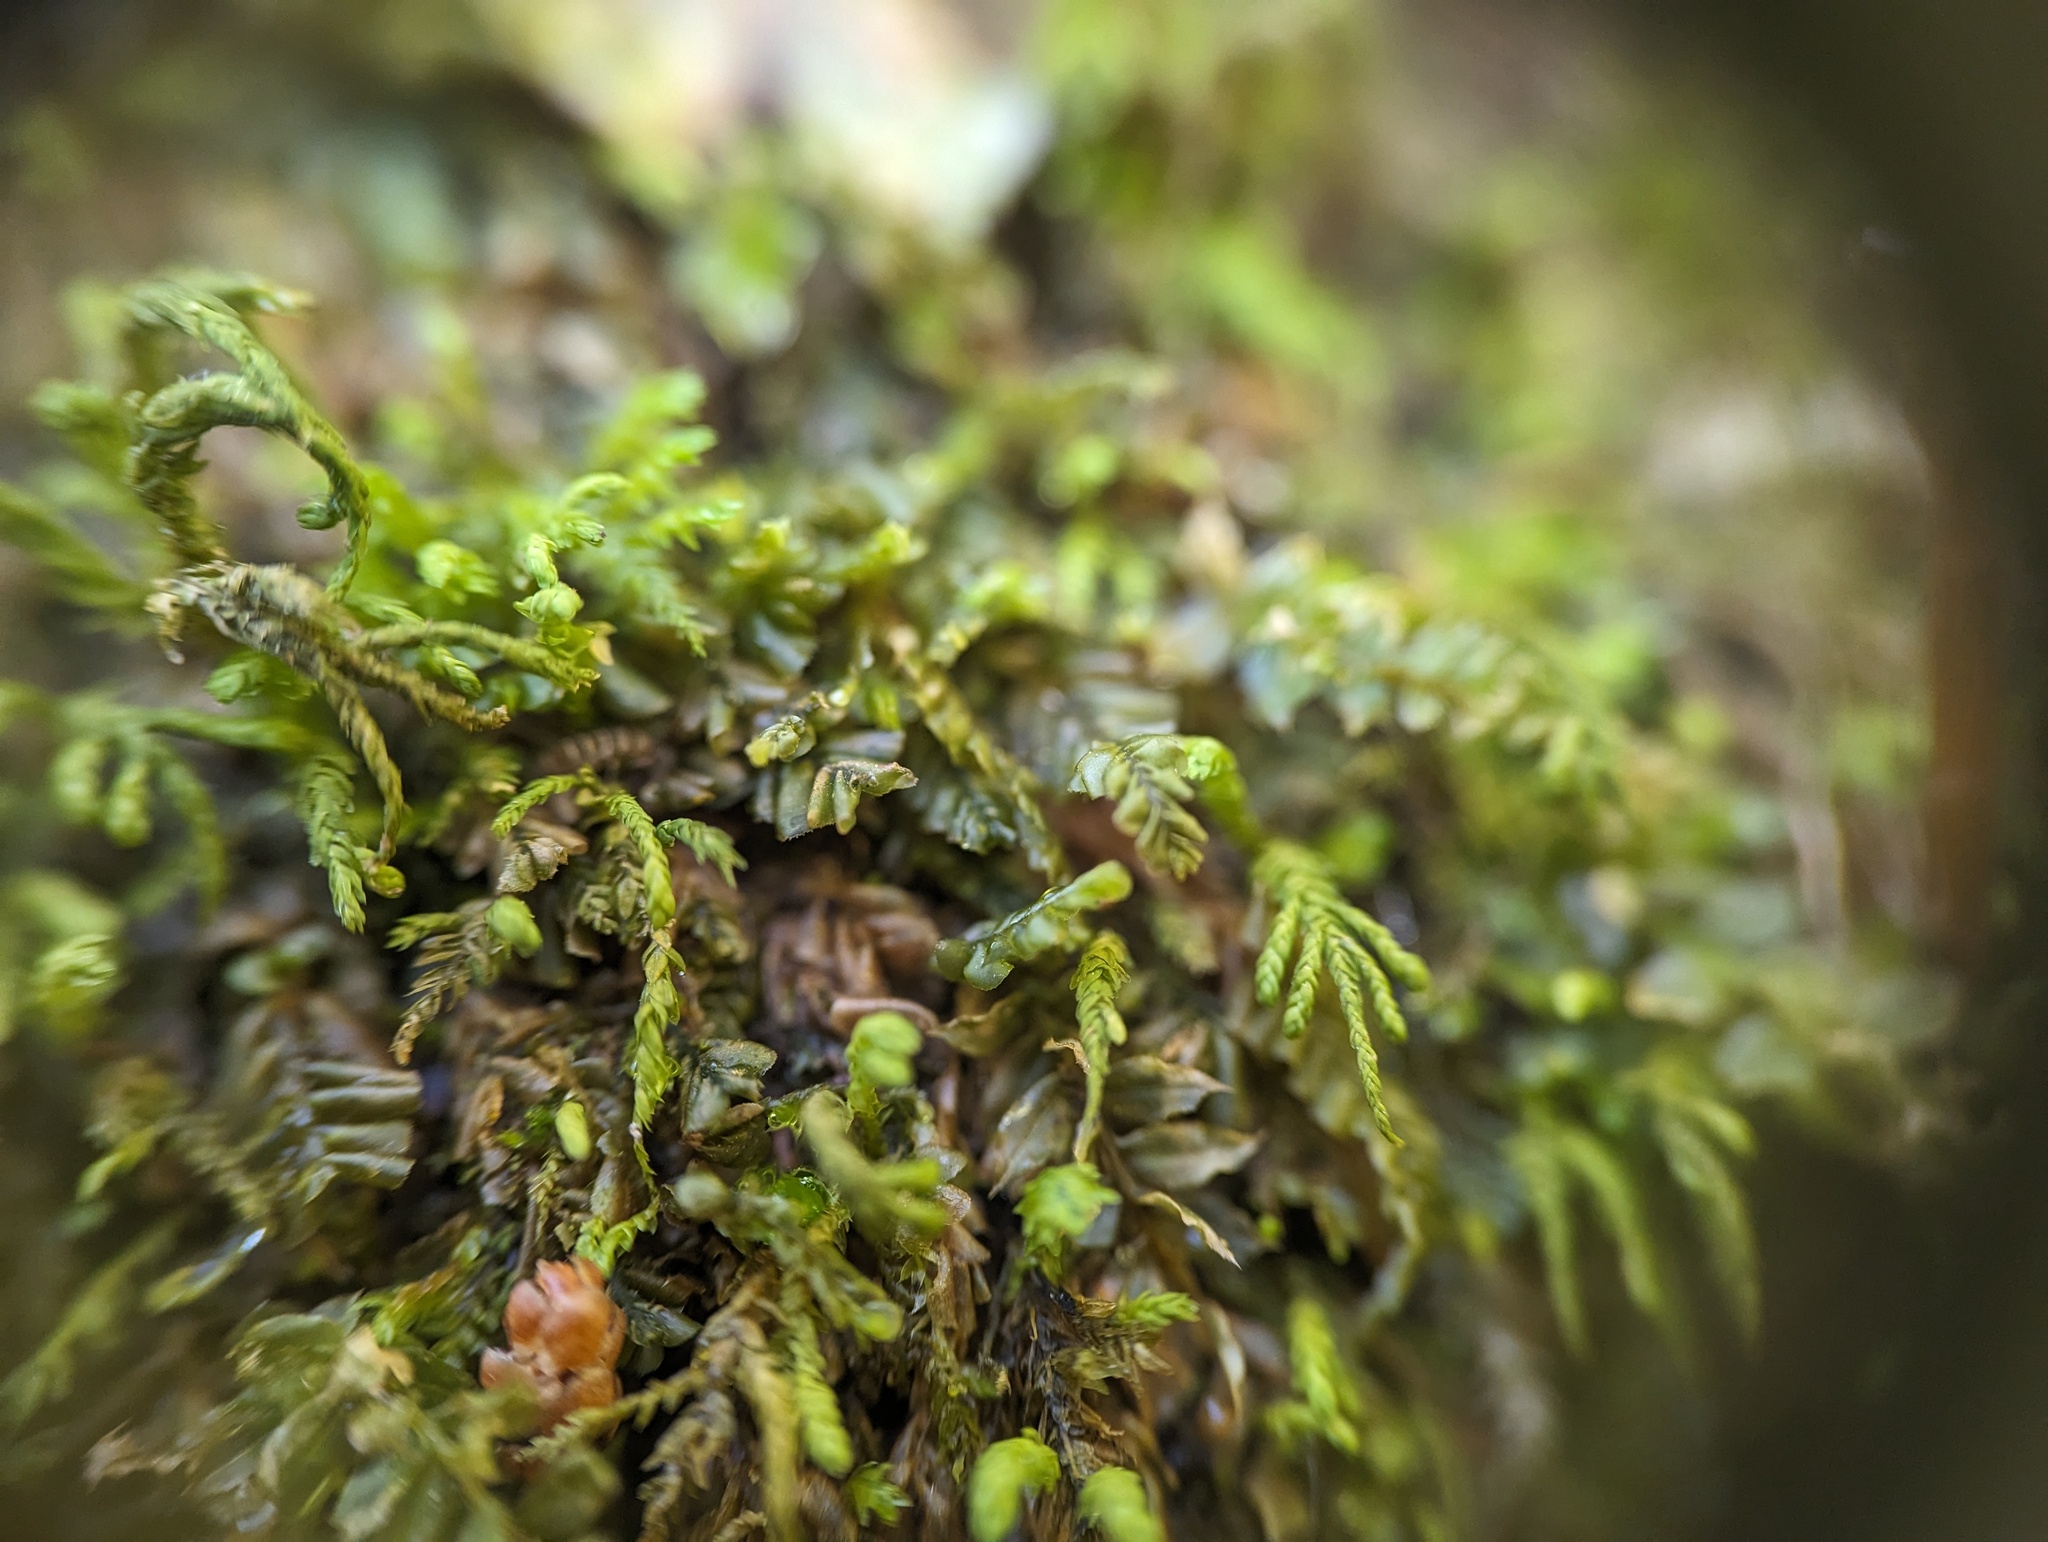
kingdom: Plantae
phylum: Marchantiophyta
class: Jungermanniopsida
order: Jungermanniales
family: Plagiochilaceae
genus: Plagiochila
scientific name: Plagiochila porelloides
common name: Lesser featherwort
